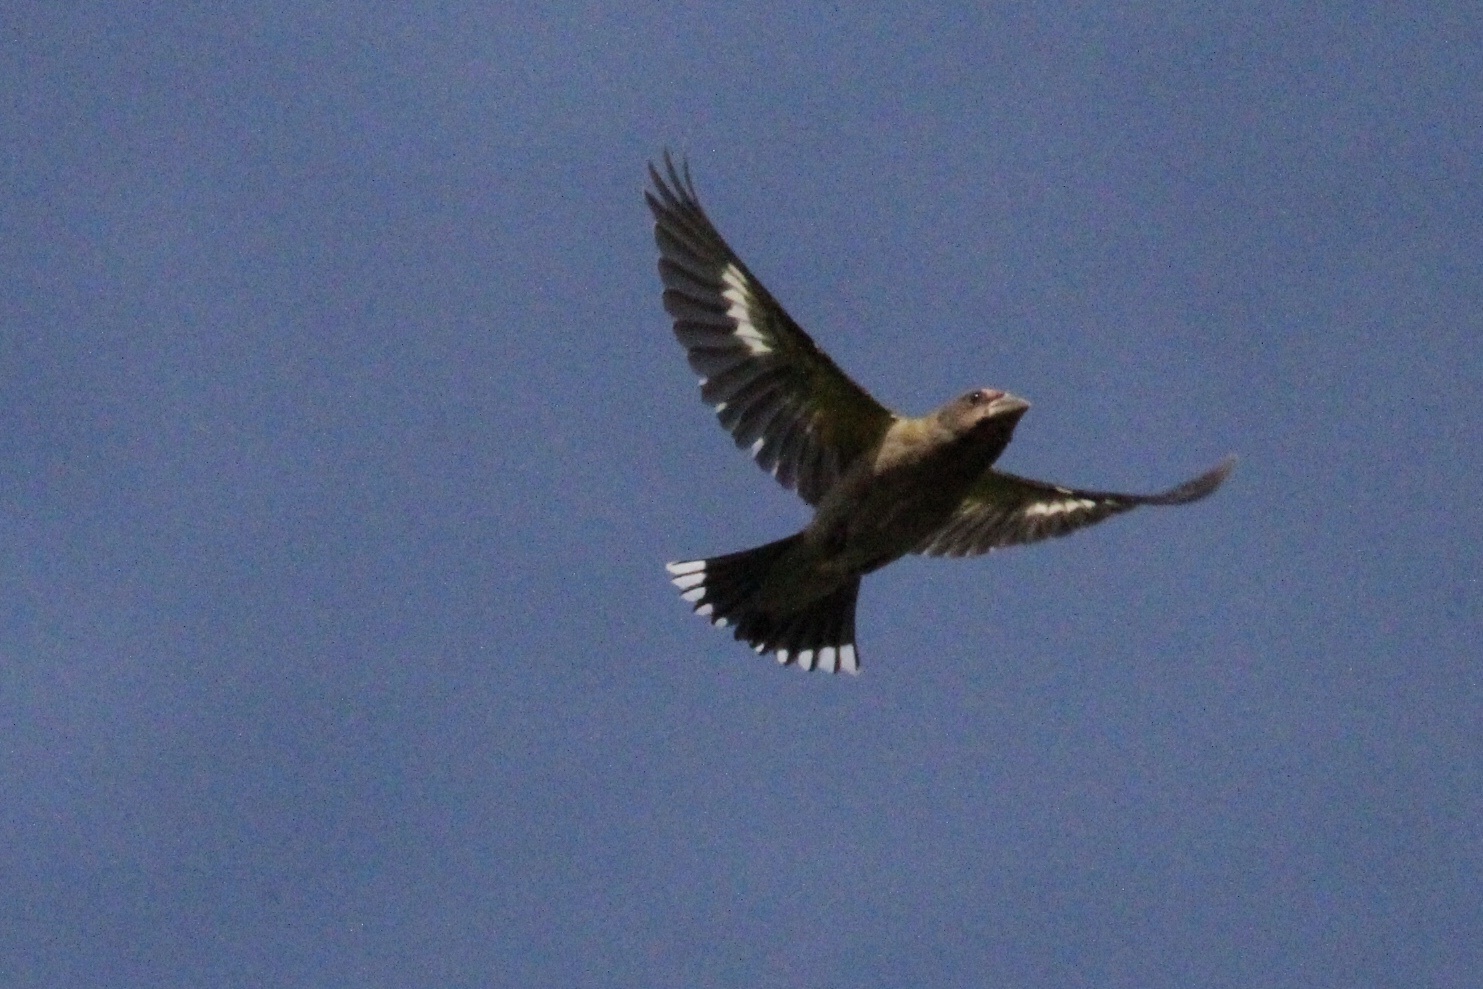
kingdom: Animalia
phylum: Chordata
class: Aves
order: Passeriformes
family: Fringillidae
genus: Hesperiphona
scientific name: Hesperiphona vespertina
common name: Evening grosbeak
